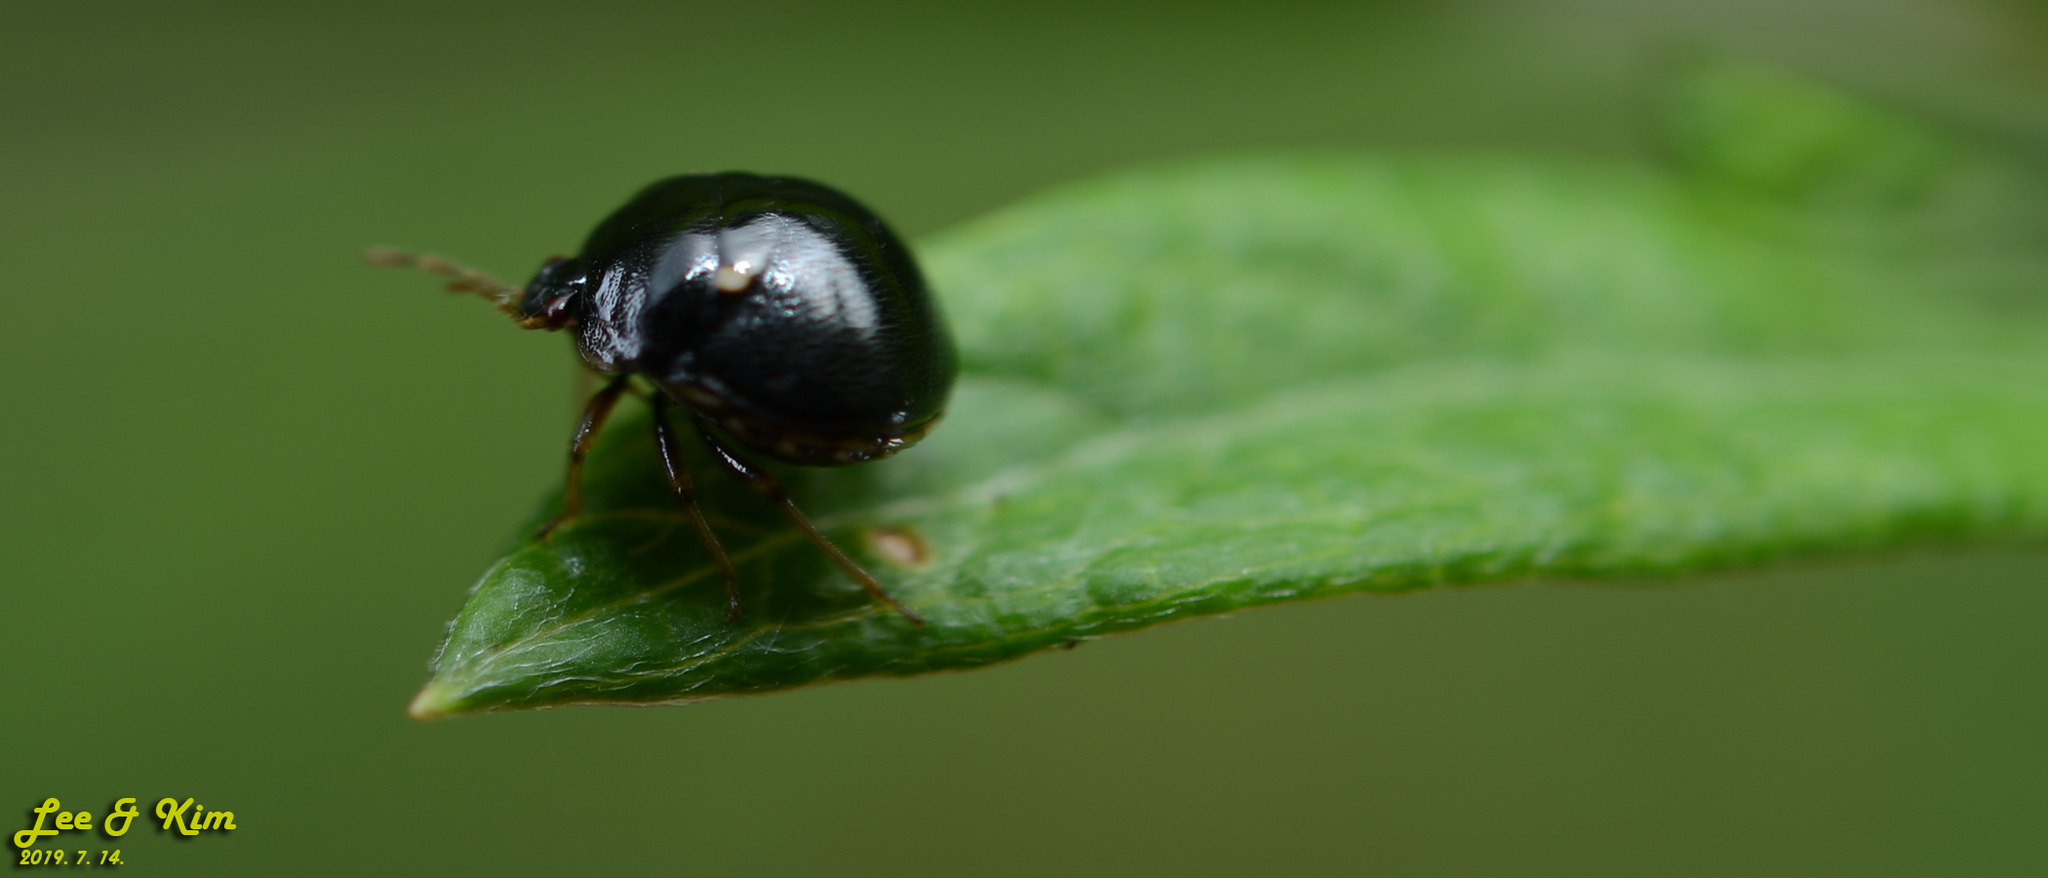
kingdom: Animalia
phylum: Arthropoda
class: Insecta
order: Hemiptera
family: Plataspidae
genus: Coptosoma
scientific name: Coptosoma bifaria
